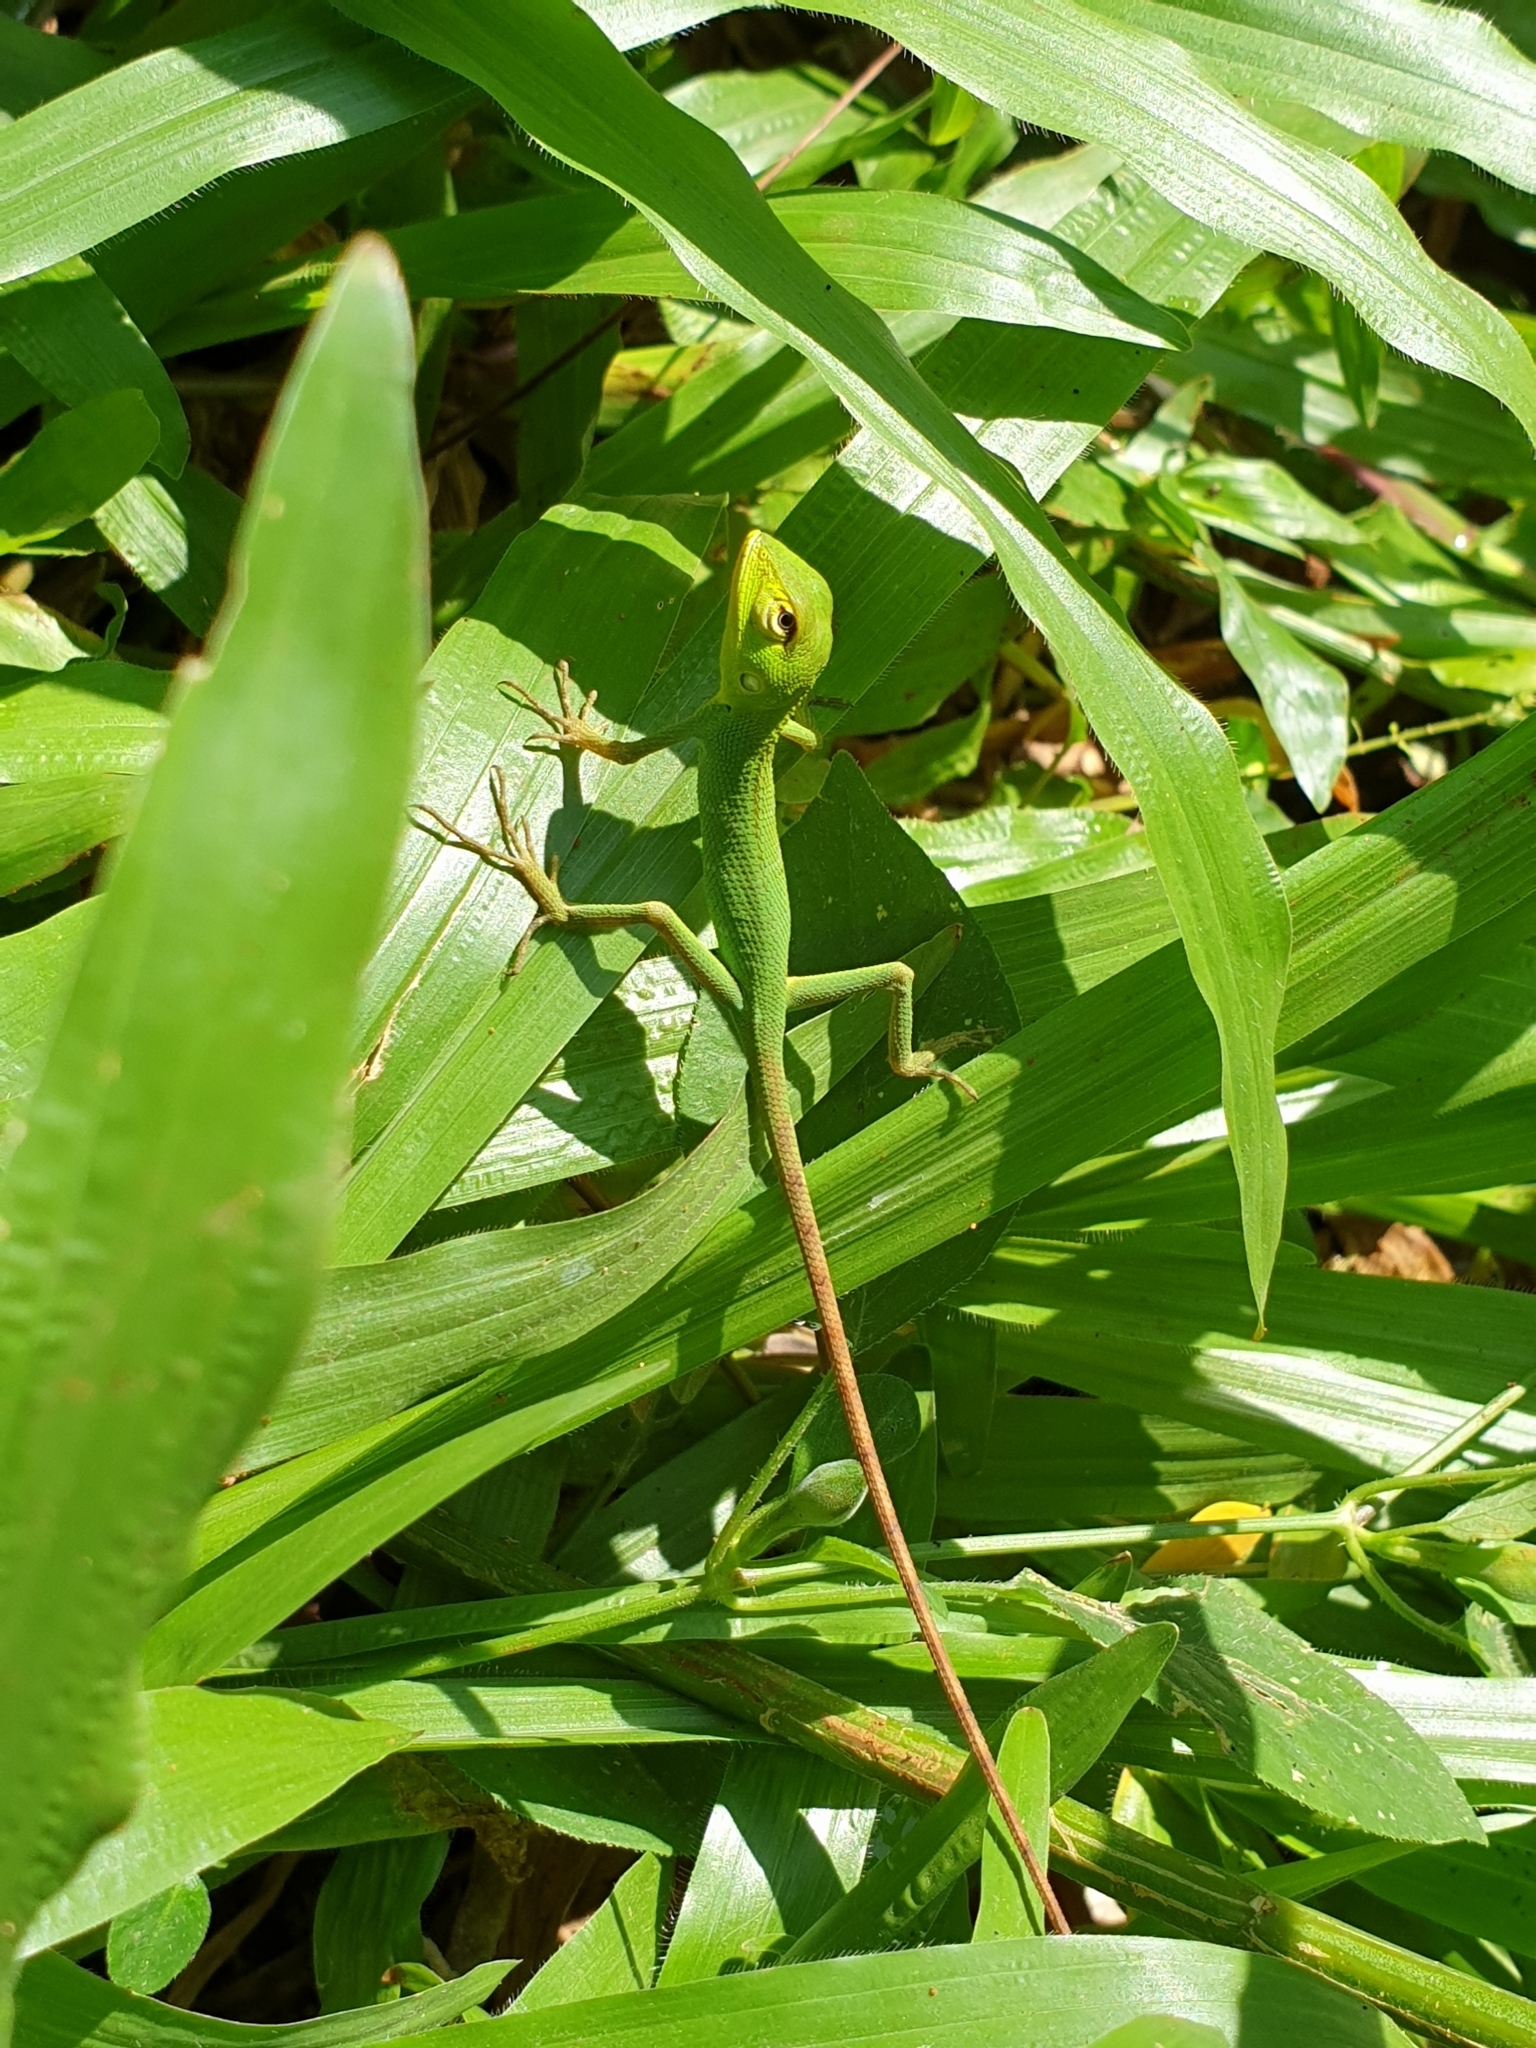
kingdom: Animalia
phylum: Chordata
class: Squamata
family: Agamidae
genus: Calotes
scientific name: Calotes calotes
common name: Common green forest lizard
